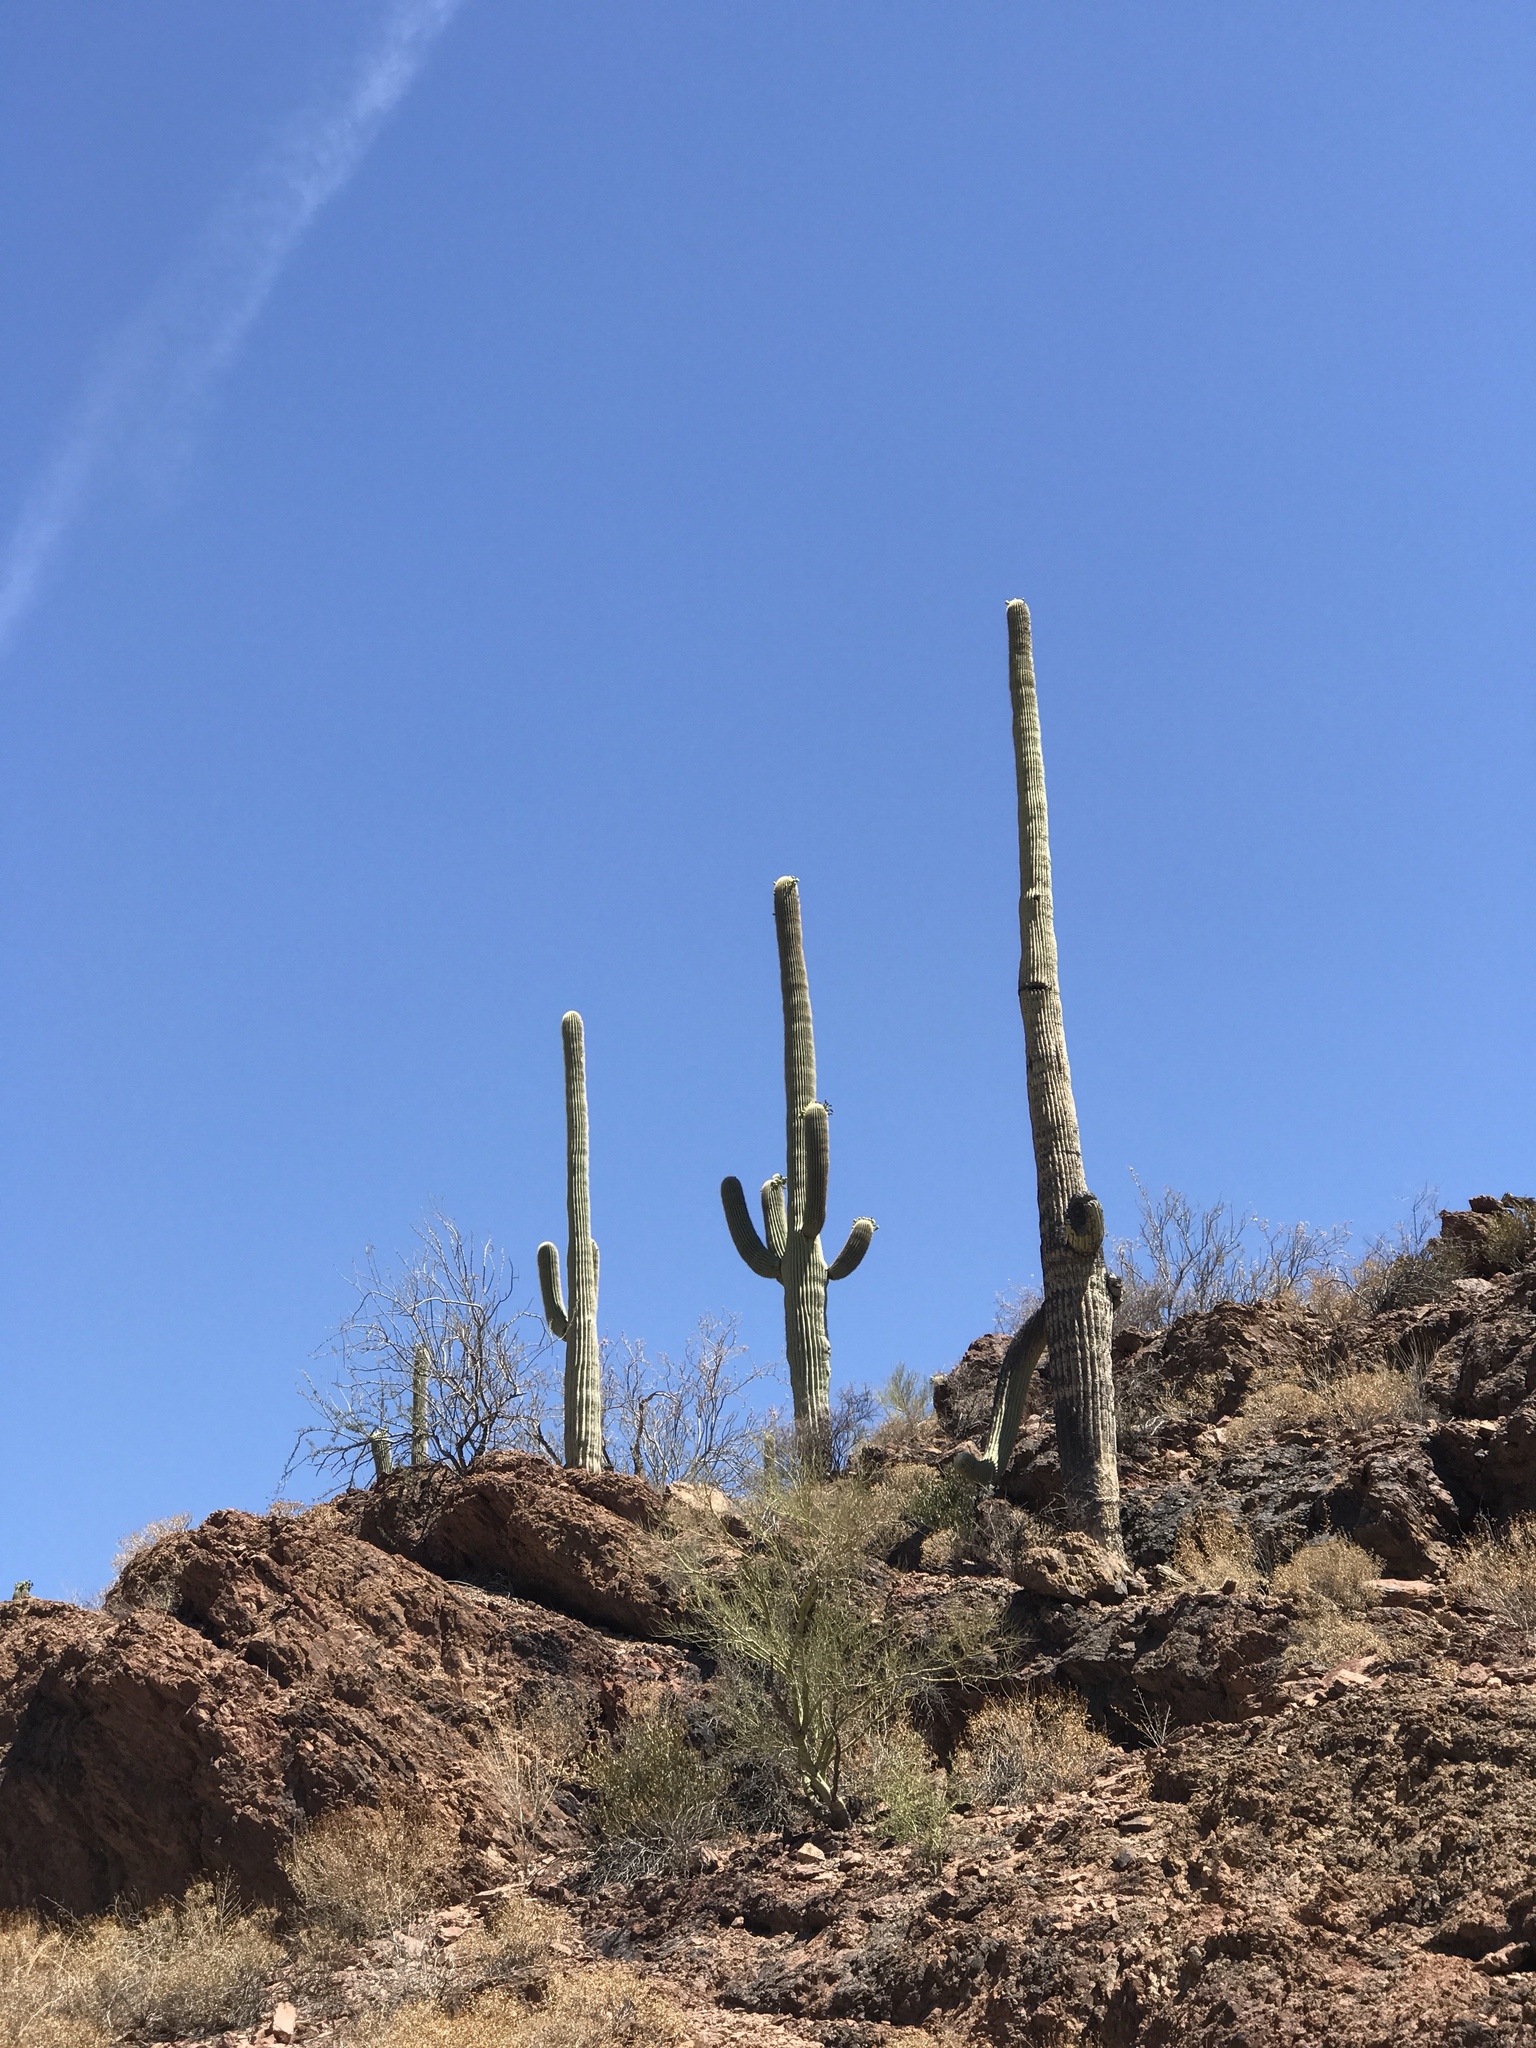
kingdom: Plantae
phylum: Tracheophyta
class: Magnoliopsida
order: Caryophyllales
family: Cactaceae
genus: Carnegiea
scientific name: Carnegiea gigantea
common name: Saguaro
